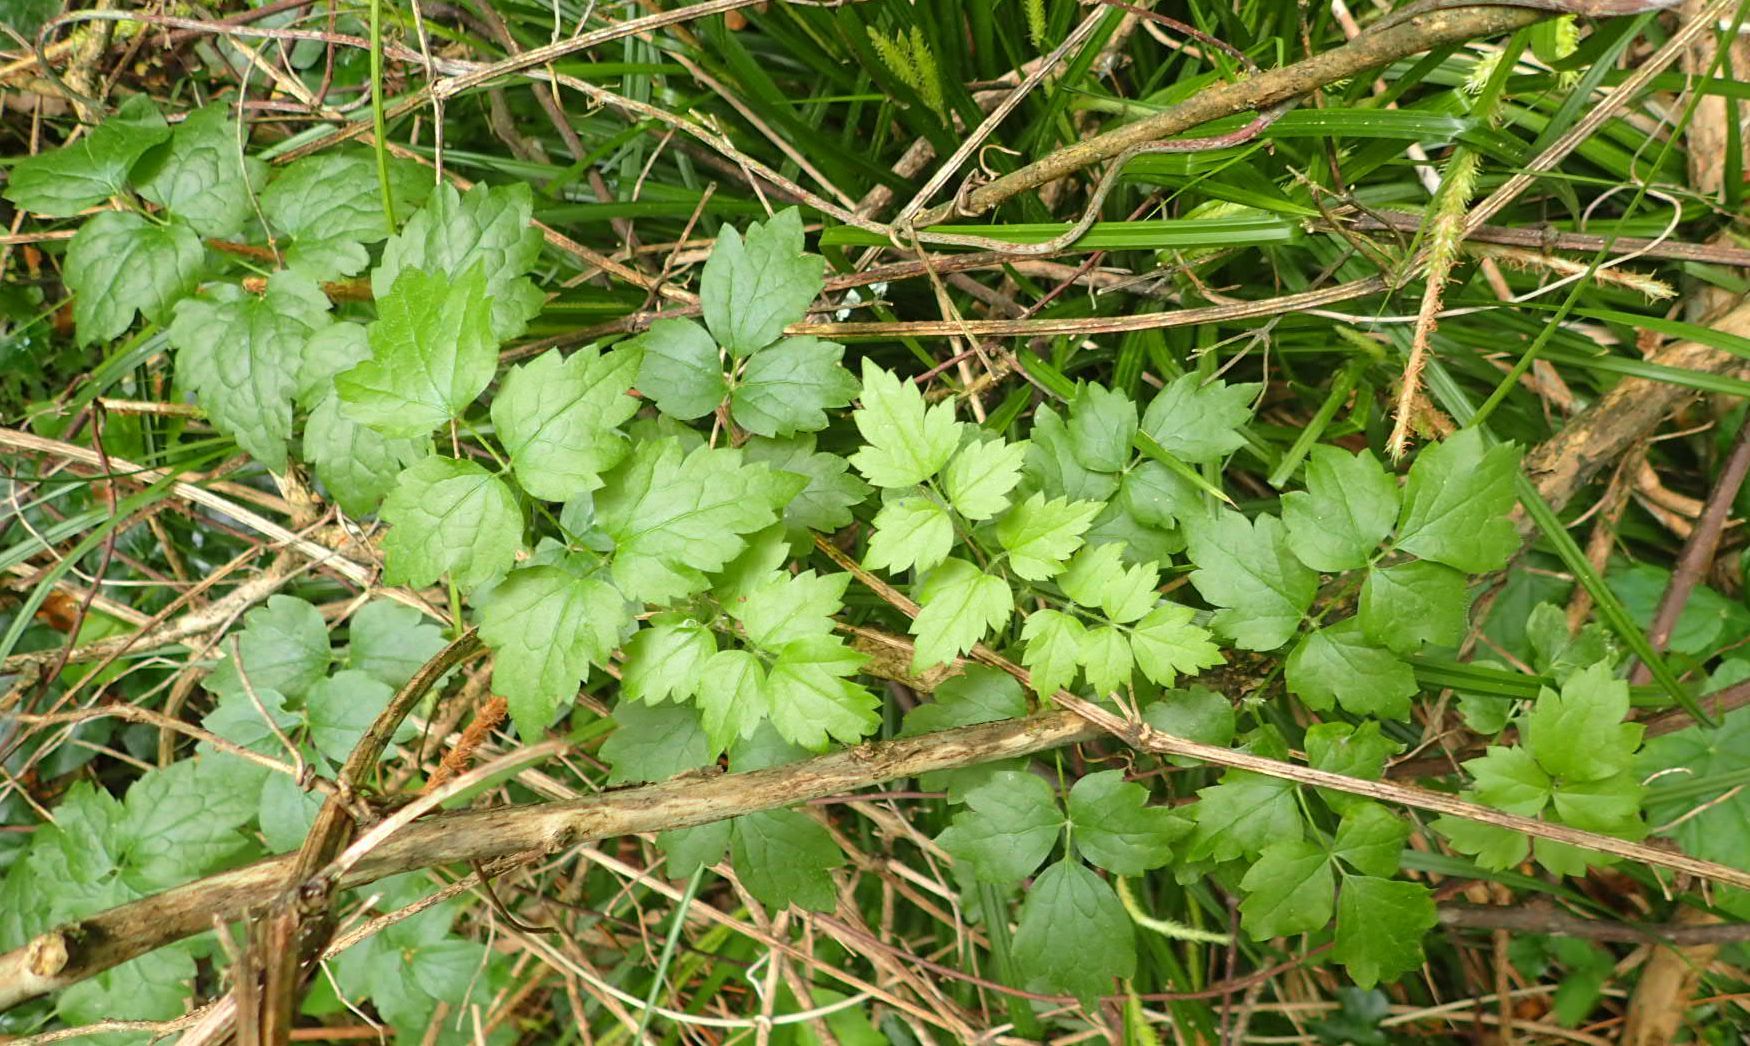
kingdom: Plantae
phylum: Tracheophyta
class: Magnoliopsida
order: Ranunculales
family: Ranunculaceae
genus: Clematis
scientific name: Clematis vitalba
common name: Evergreen clematis
